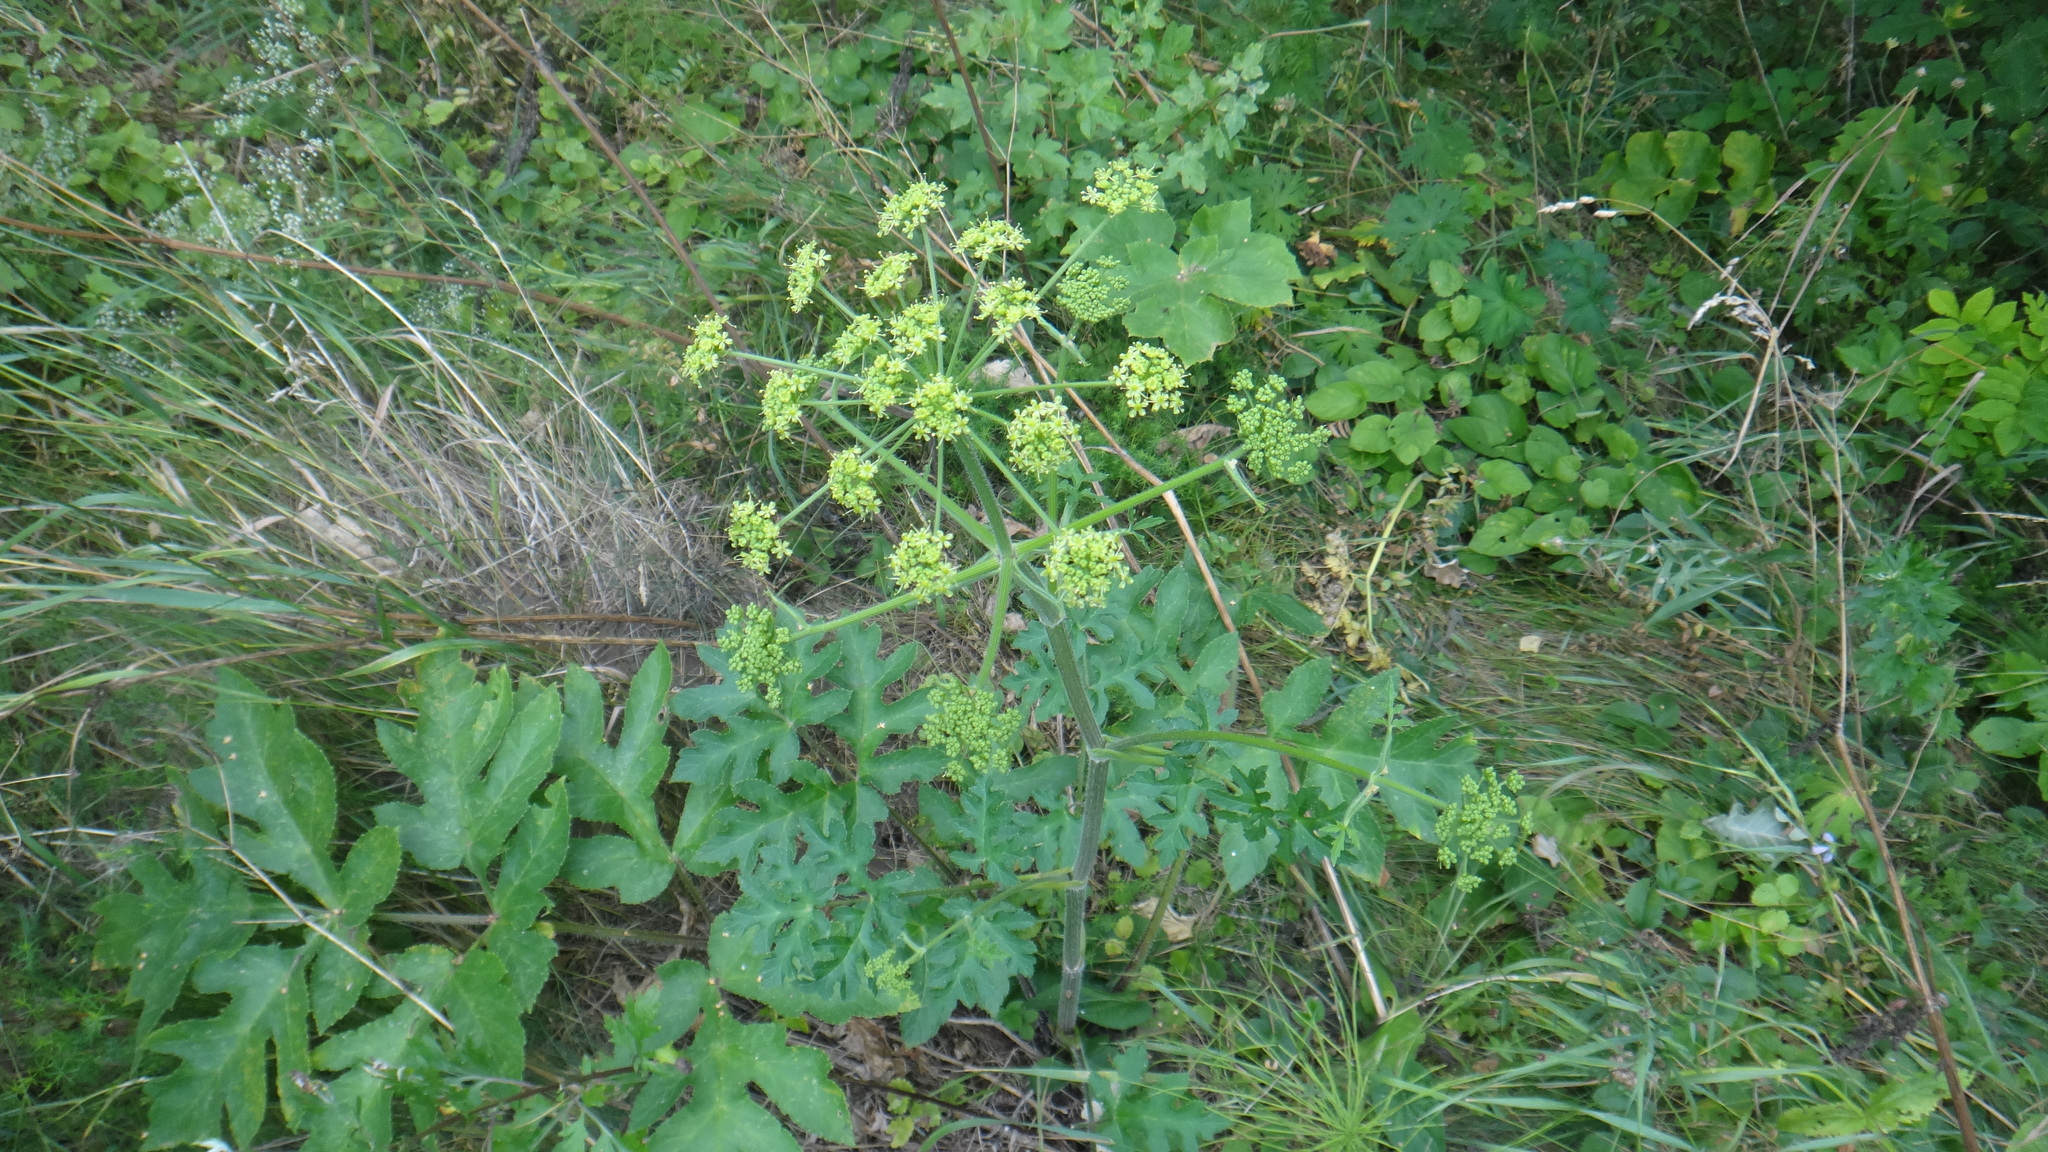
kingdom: Plantae
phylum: Tracheophyta
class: Magnoliopsida
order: Apiales
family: Apiaceae
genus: Heracleum
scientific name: Heracleum sphondylium
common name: Hogweed
